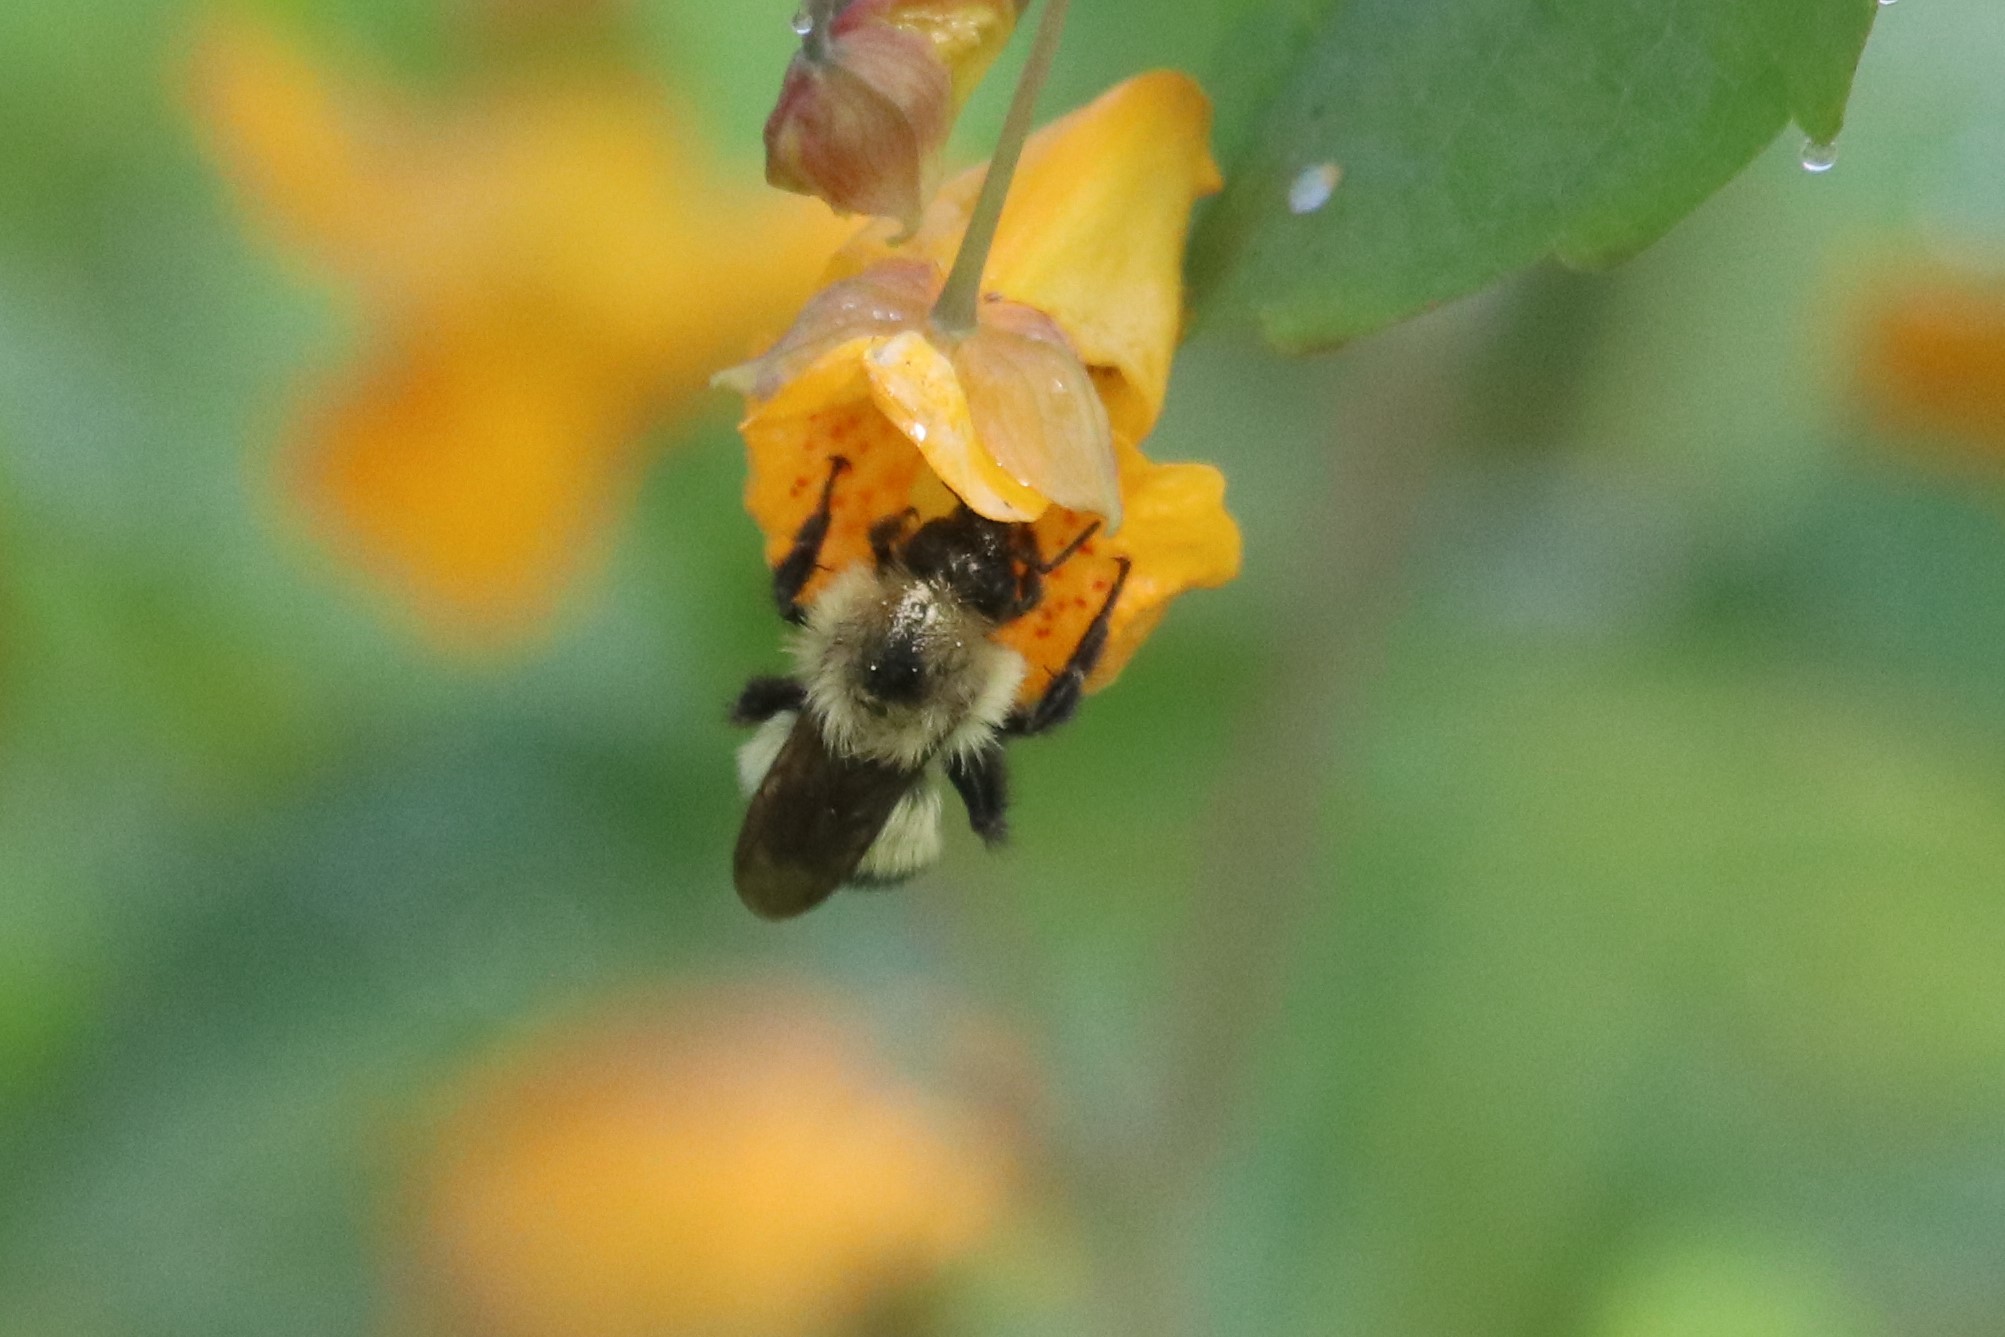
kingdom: Animalia
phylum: Arthropoda
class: Insecta
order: Hymenoptera
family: Apidae
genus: Pyrobombus
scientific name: Pyrobombus
